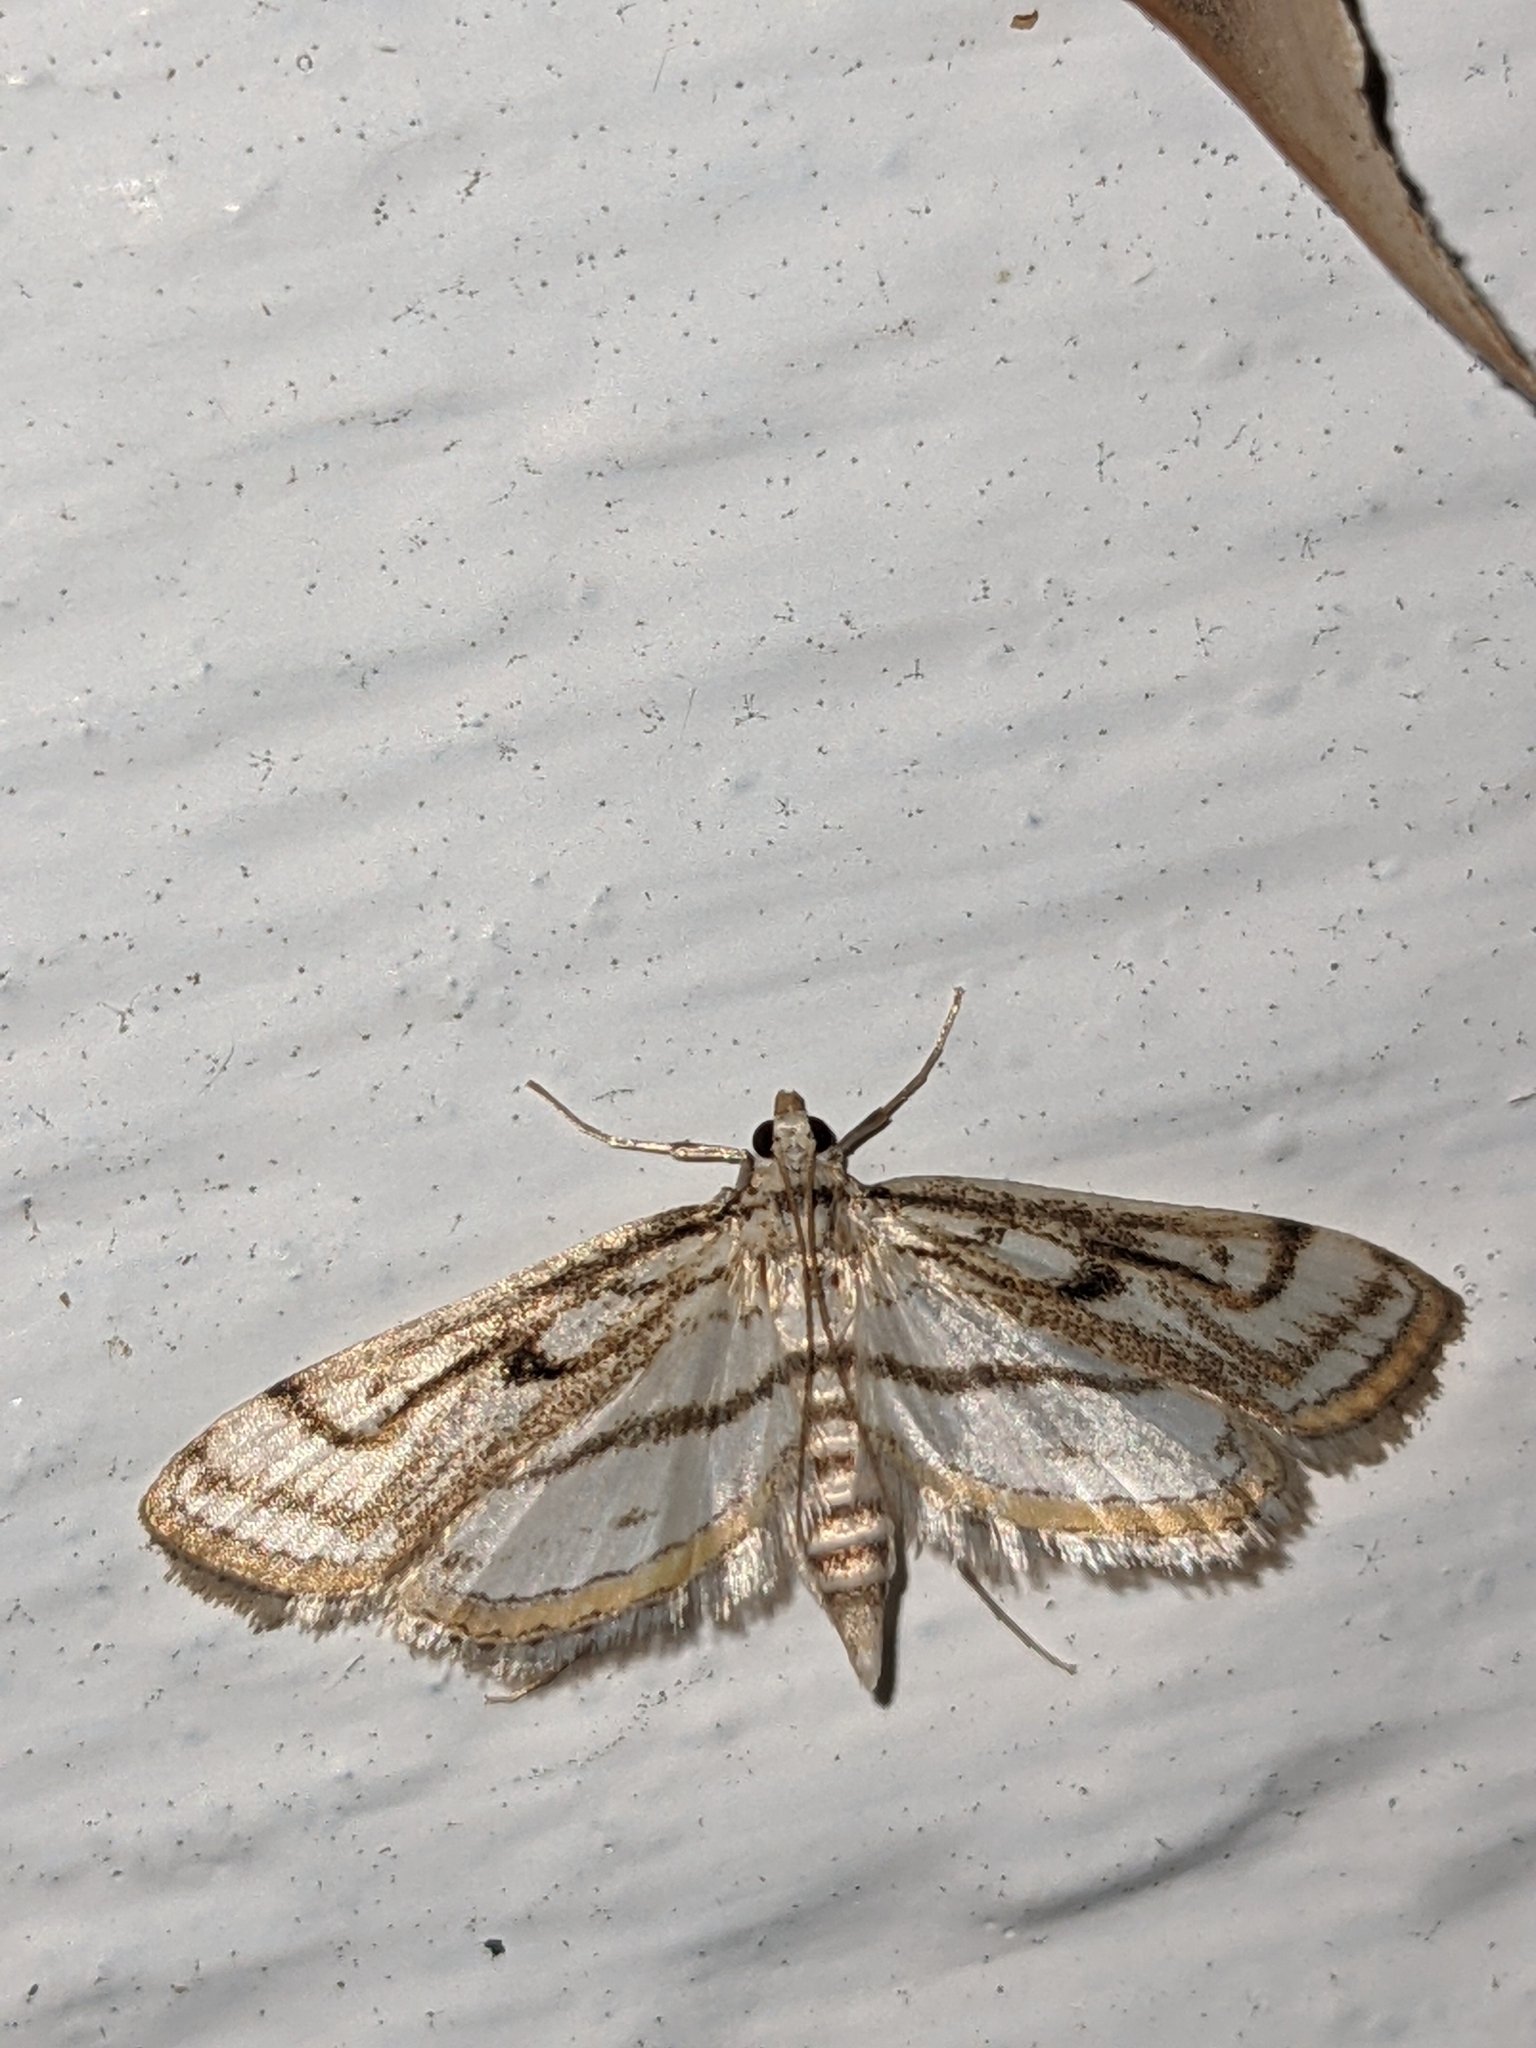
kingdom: Animalia
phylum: Arthropoda
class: Insecta
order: Lepidoptera
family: Crambidae
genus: Parapoynx
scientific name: Parapoynx badiusalis
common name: Chestnut-marked pondweed moth
